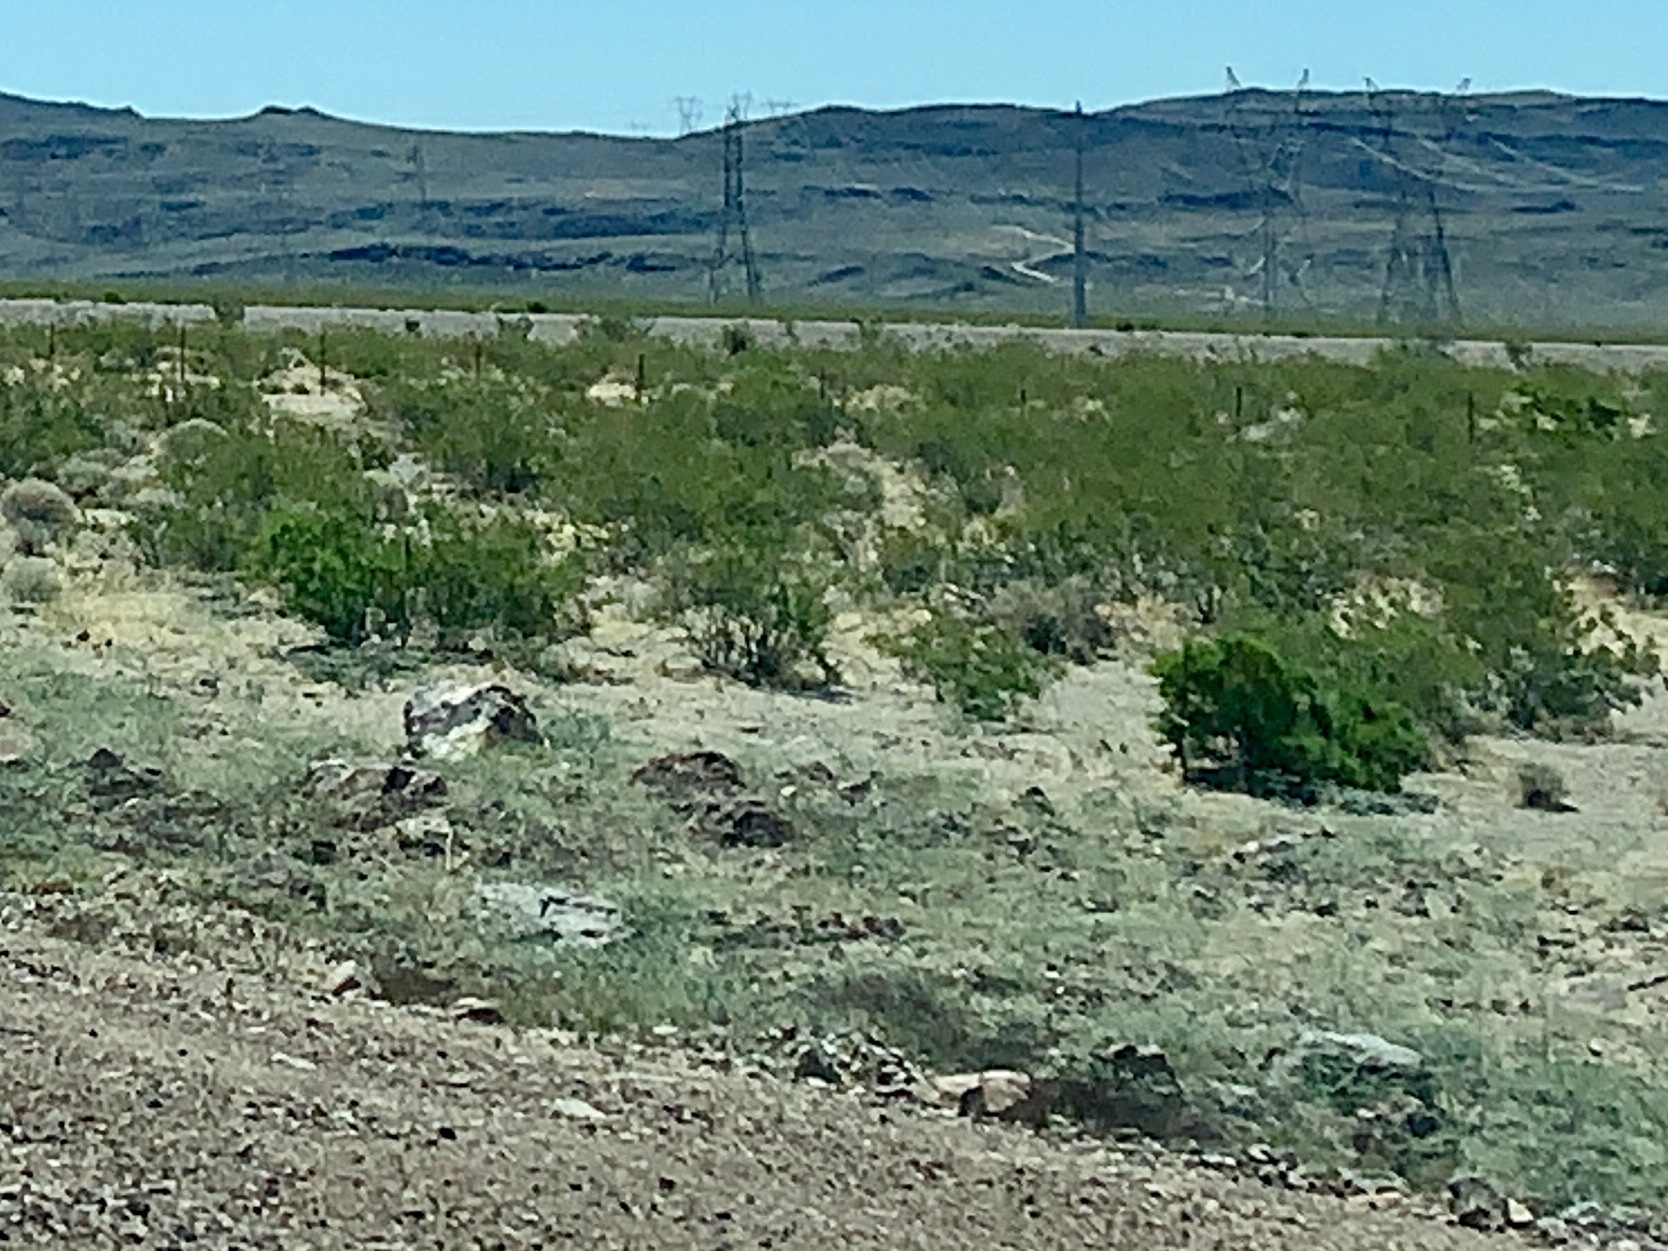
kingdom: Plantae
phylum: Tracheophyta
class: Magnoliopsida
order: Zygophyllales
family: Zygophyllaceae
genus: Larrea
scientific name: Larrea tridentata
